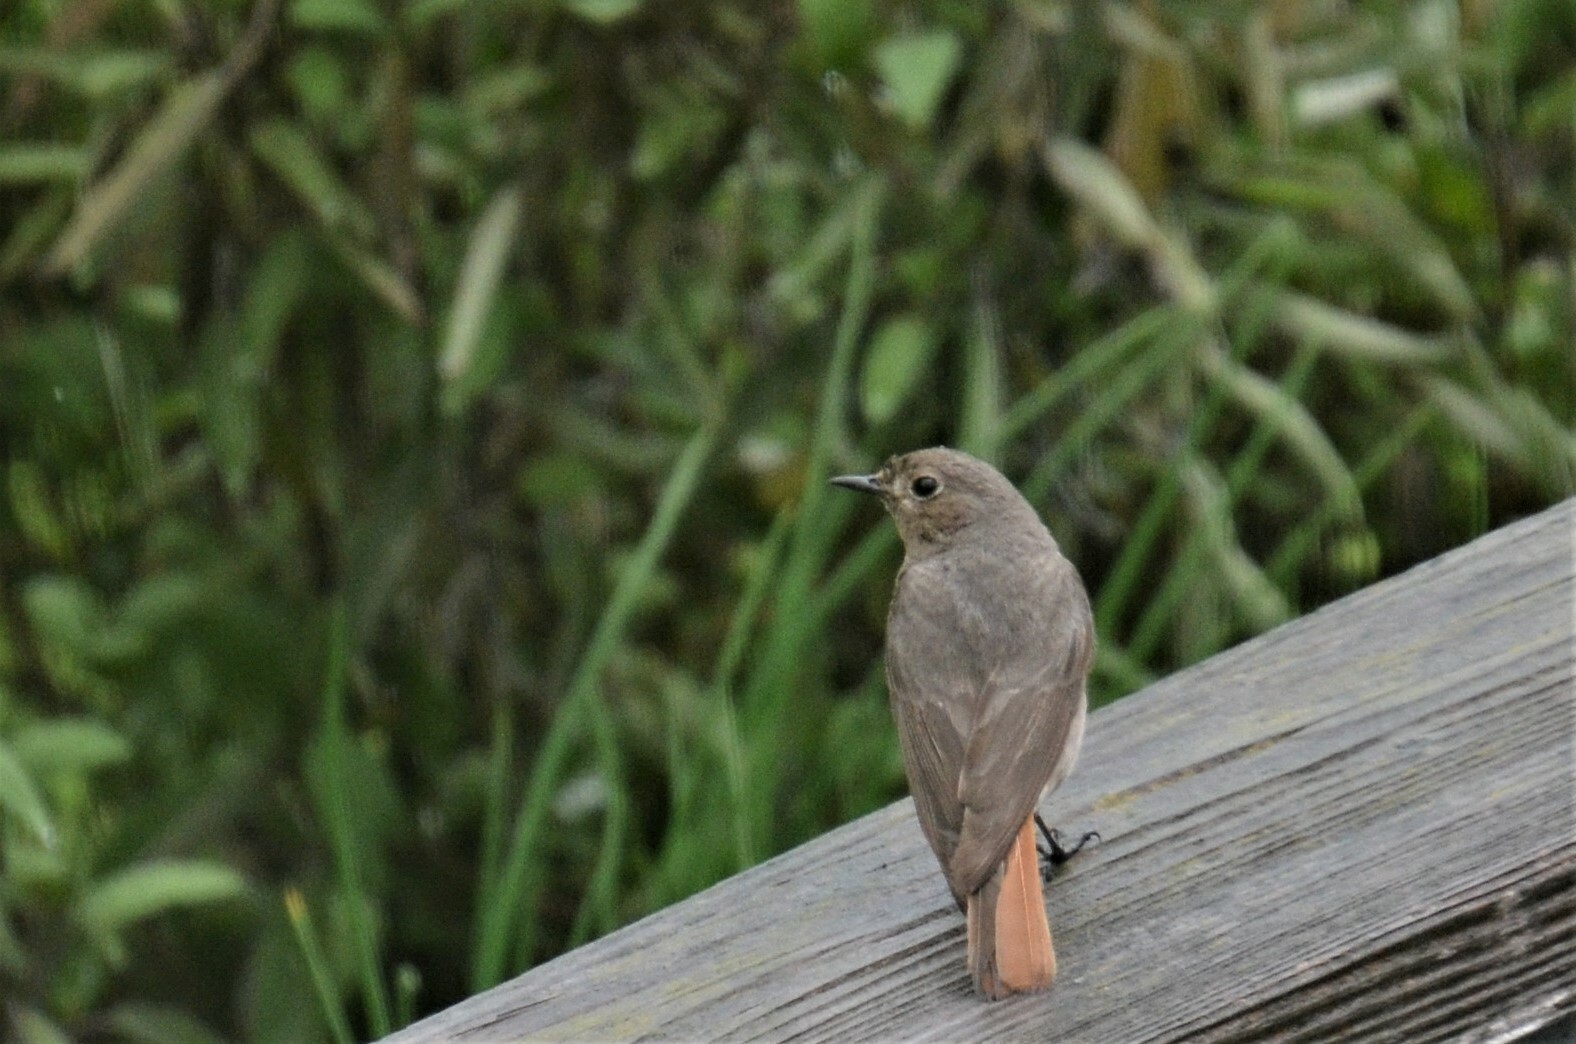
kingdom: Animalia
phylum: Chordata
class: Aves
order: Passeriformes
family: Muscicapidae
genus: Phoenicurus
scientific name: Phoenicurus ochruros
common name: Black redstart
